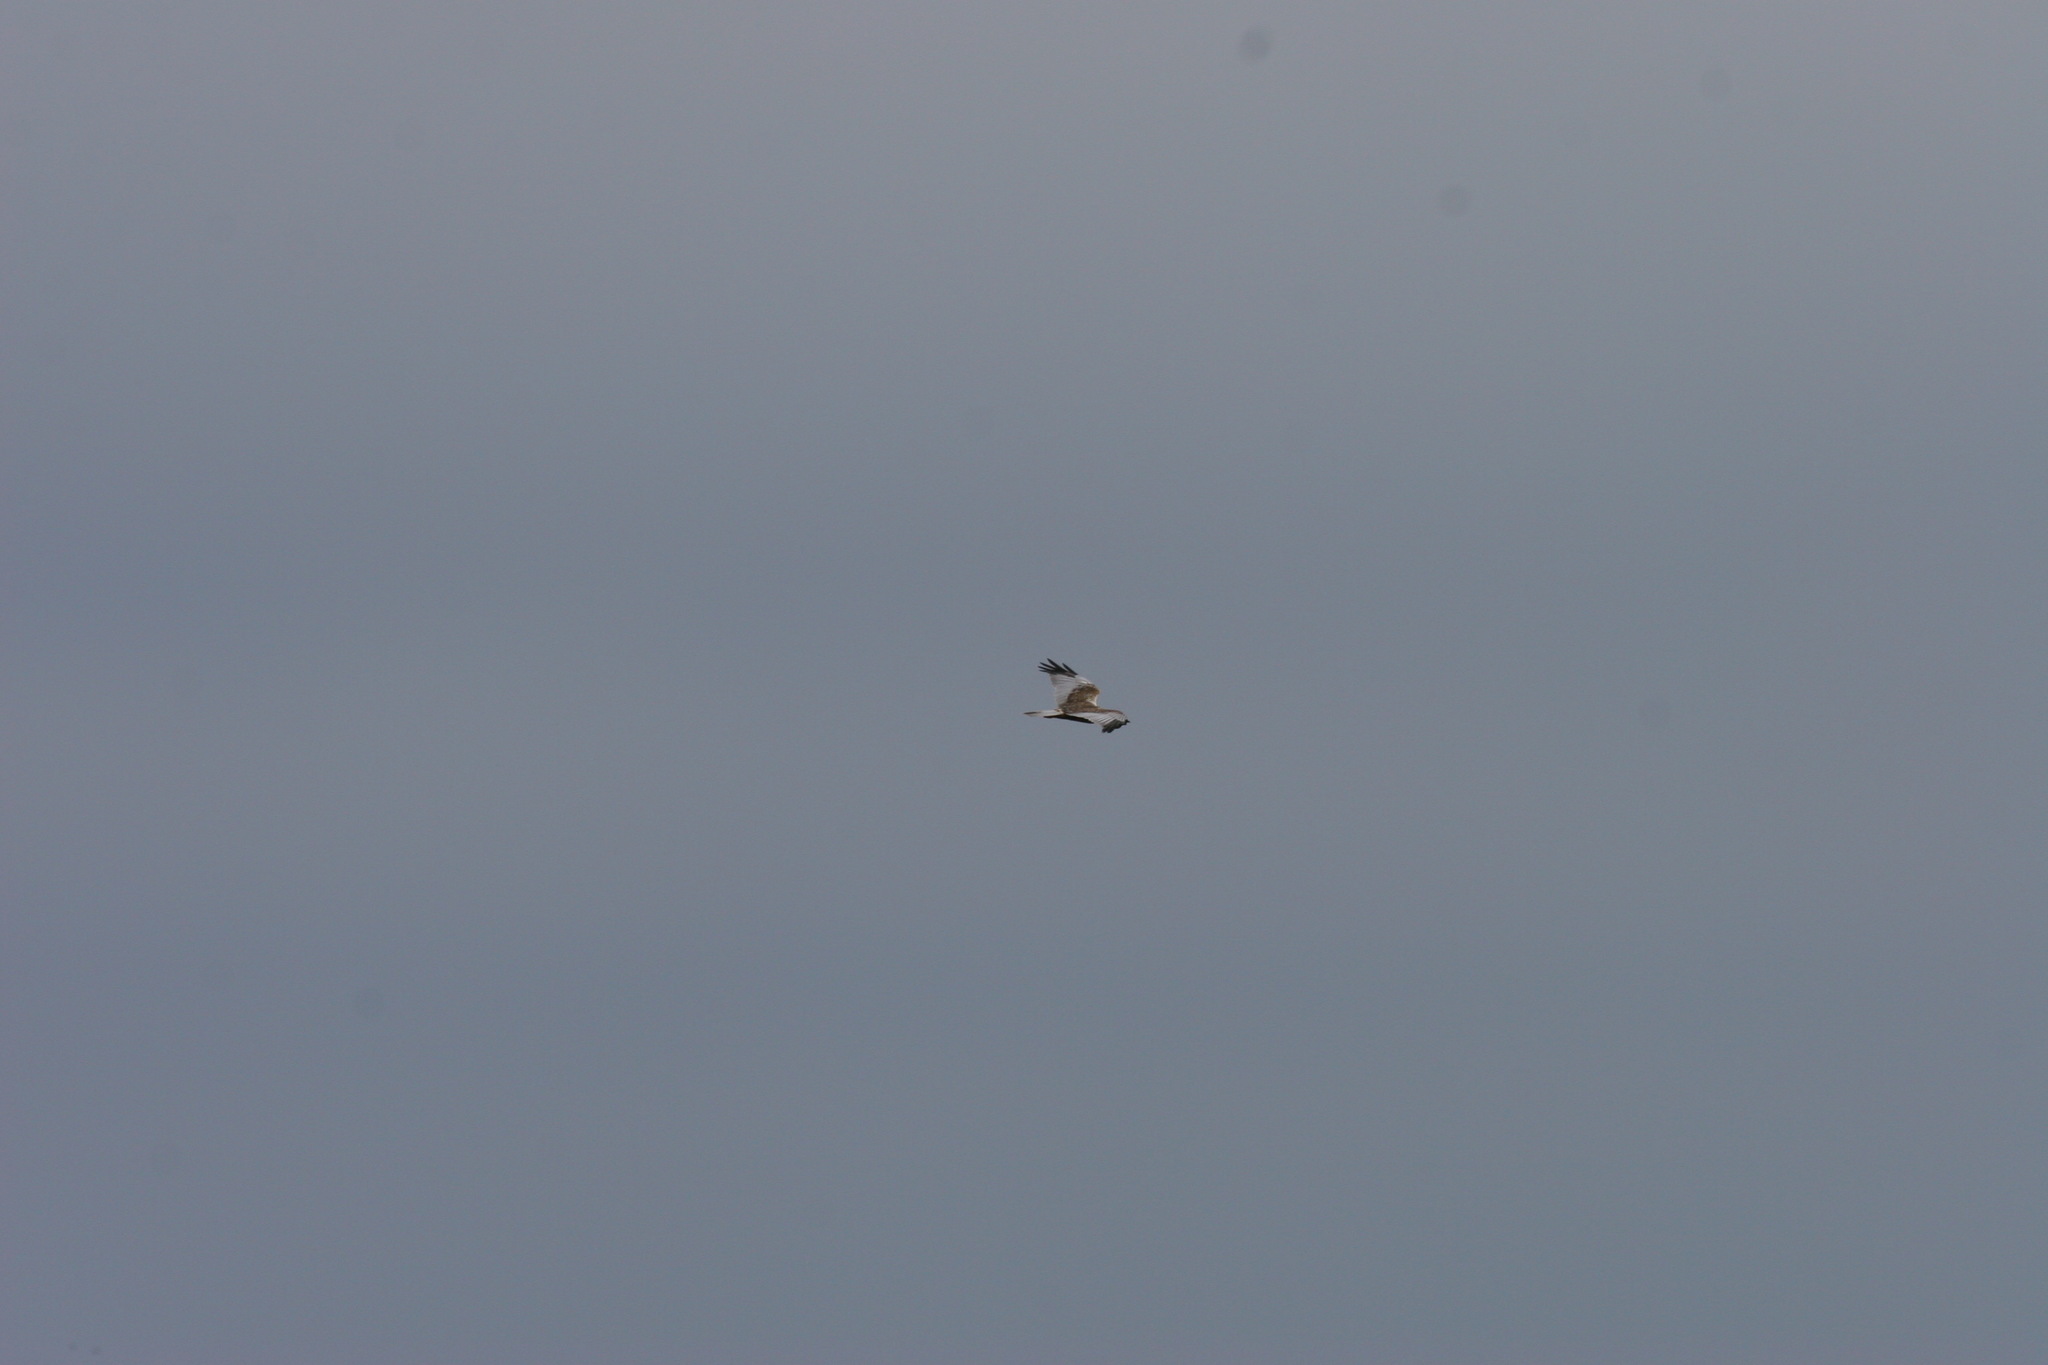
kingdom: Animalia
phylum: Chordata
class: Aves
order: Accipitriformes
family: Accipitridae
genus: Circus
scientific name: Circus aeruginosus
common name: Western marsh harrier
